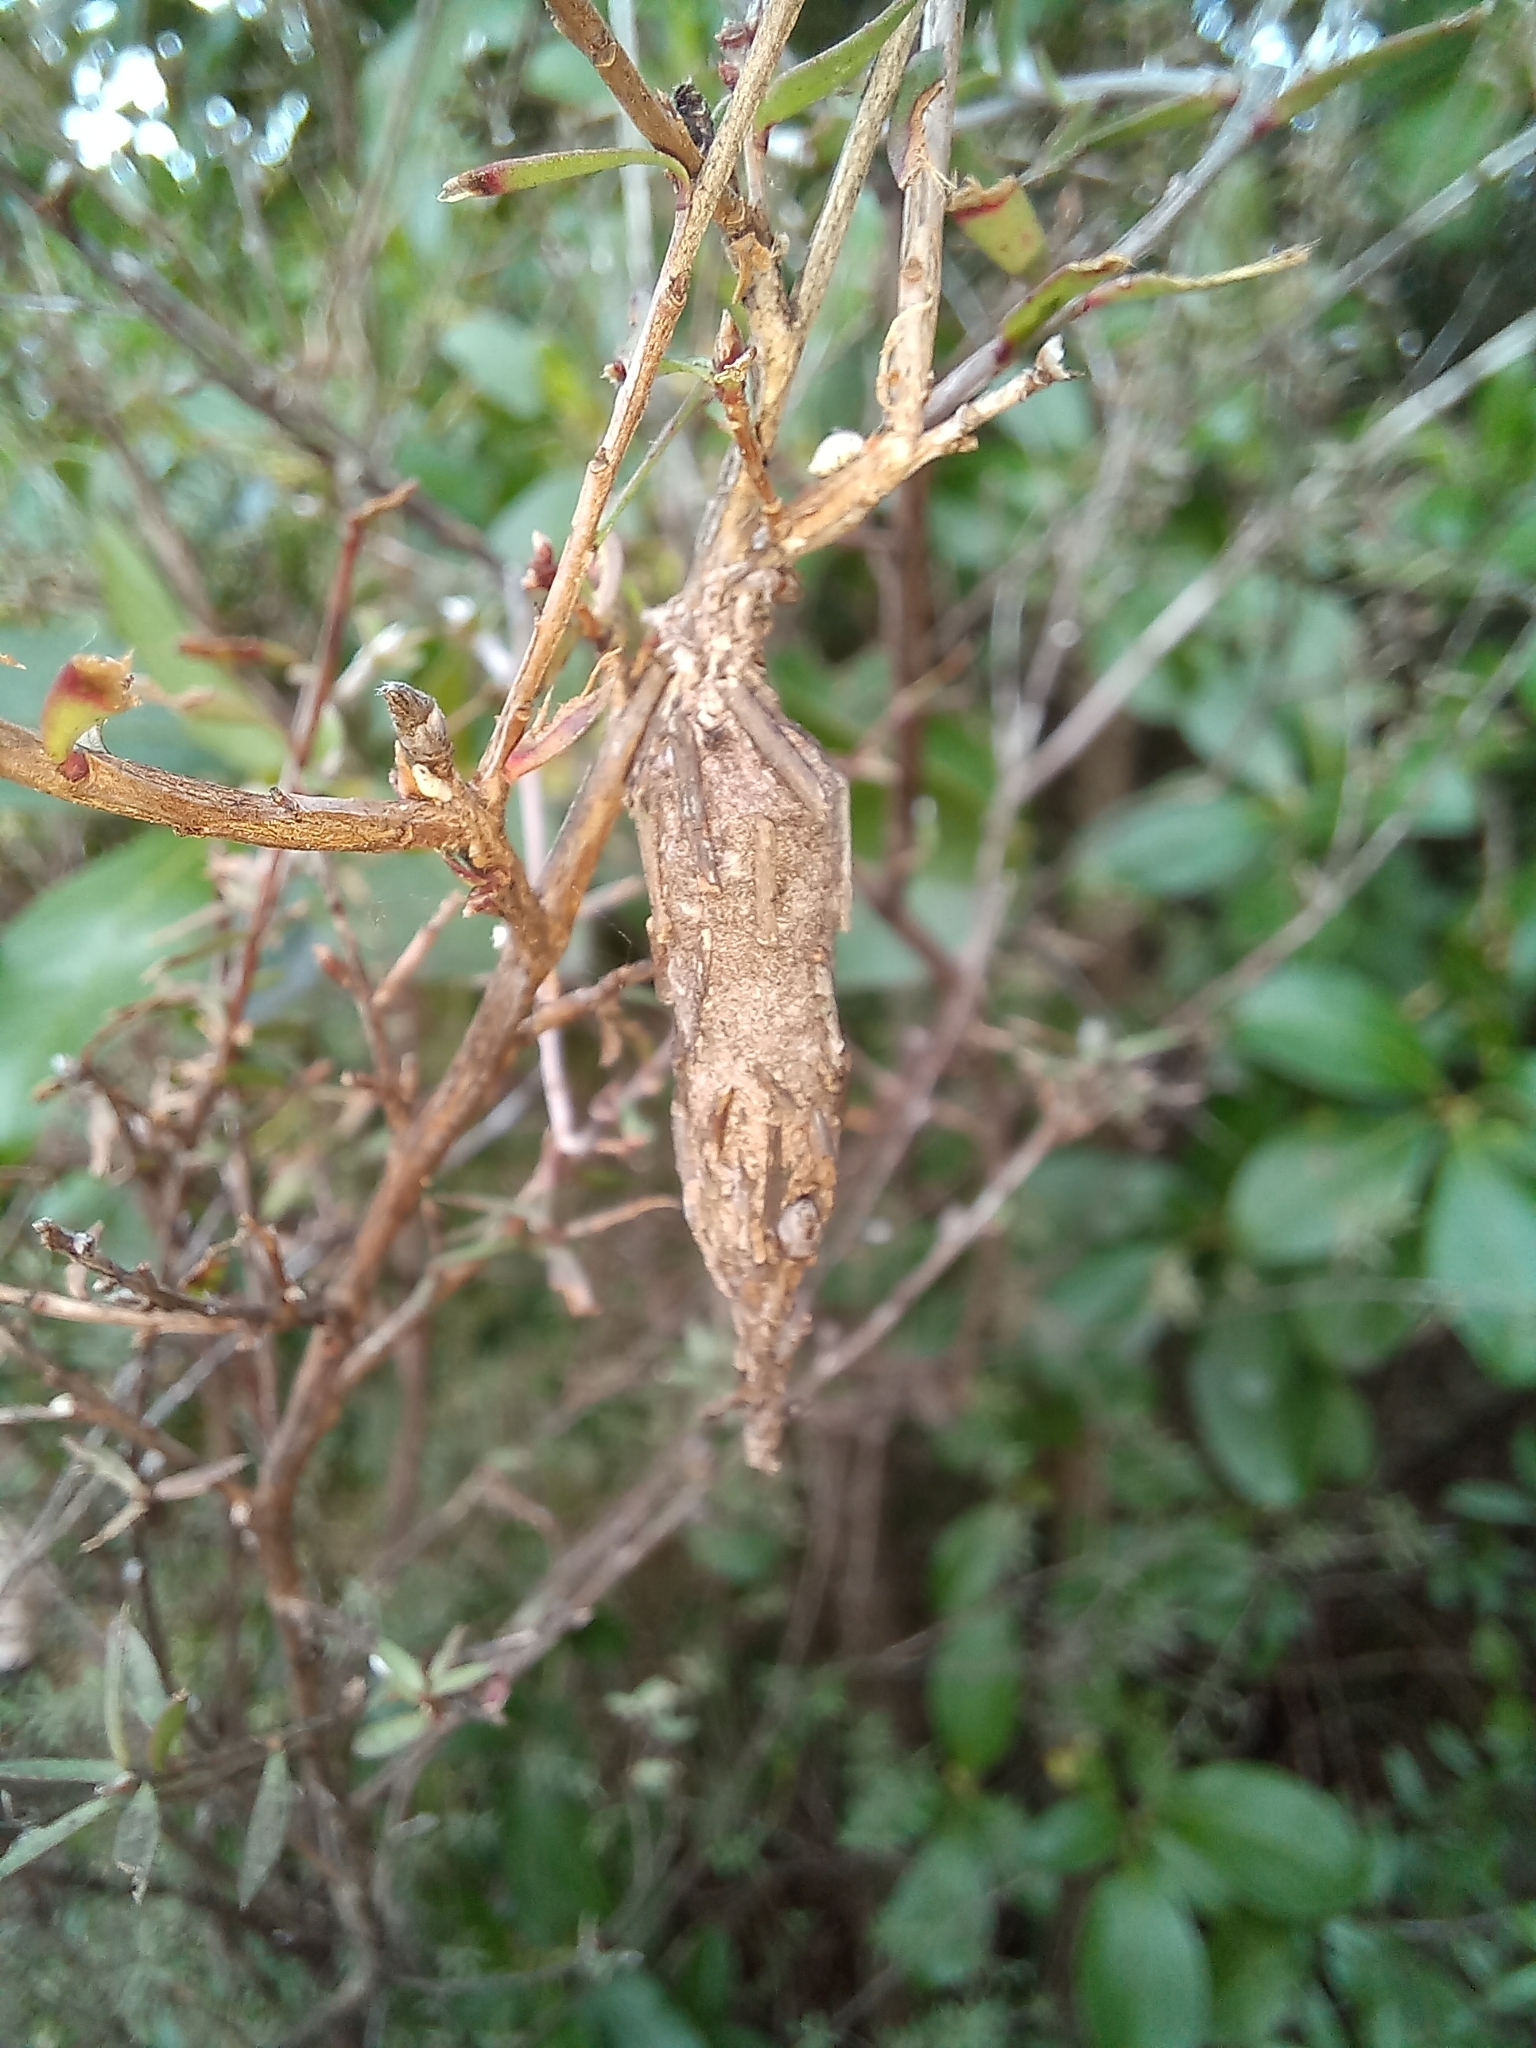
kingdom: Animalia
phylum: Arthropoda
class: Insecta
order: Lepidoptera
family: Psychidae
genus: Liothula
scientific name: Liothula omnivora
